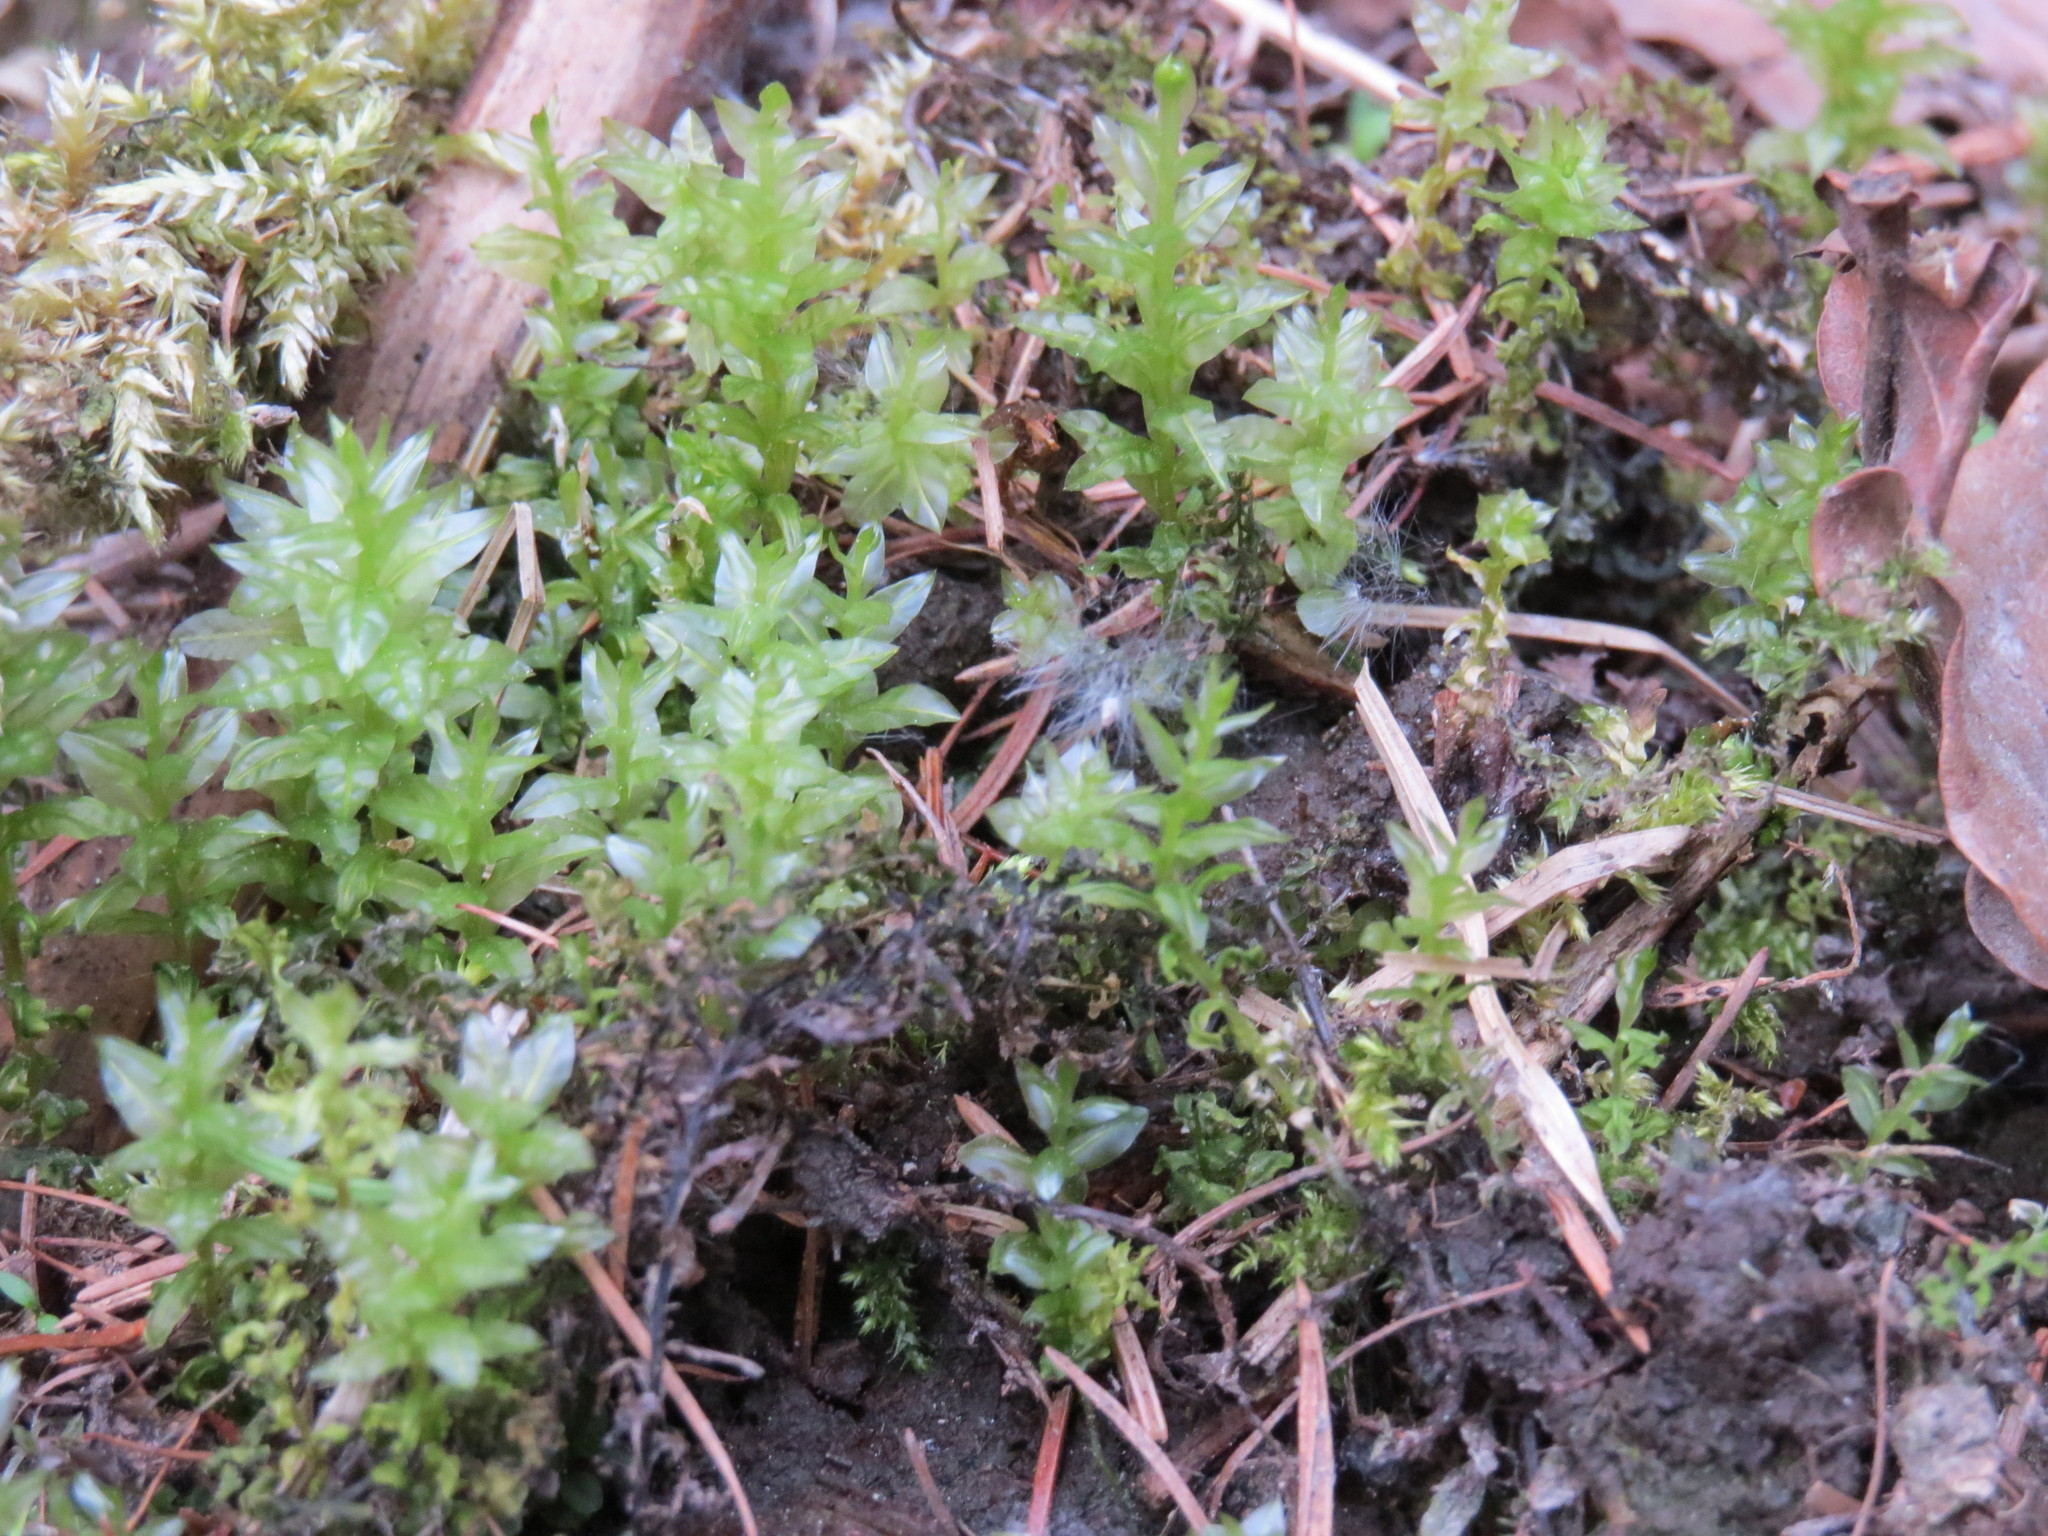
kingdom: Plantae
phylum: Bryophyta
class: Bryopsida
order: Bryales
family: Mniaceae
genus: Plagiomnium
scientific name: Plagiomnium undulatum
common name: Hart's-tongue thyme-moss
